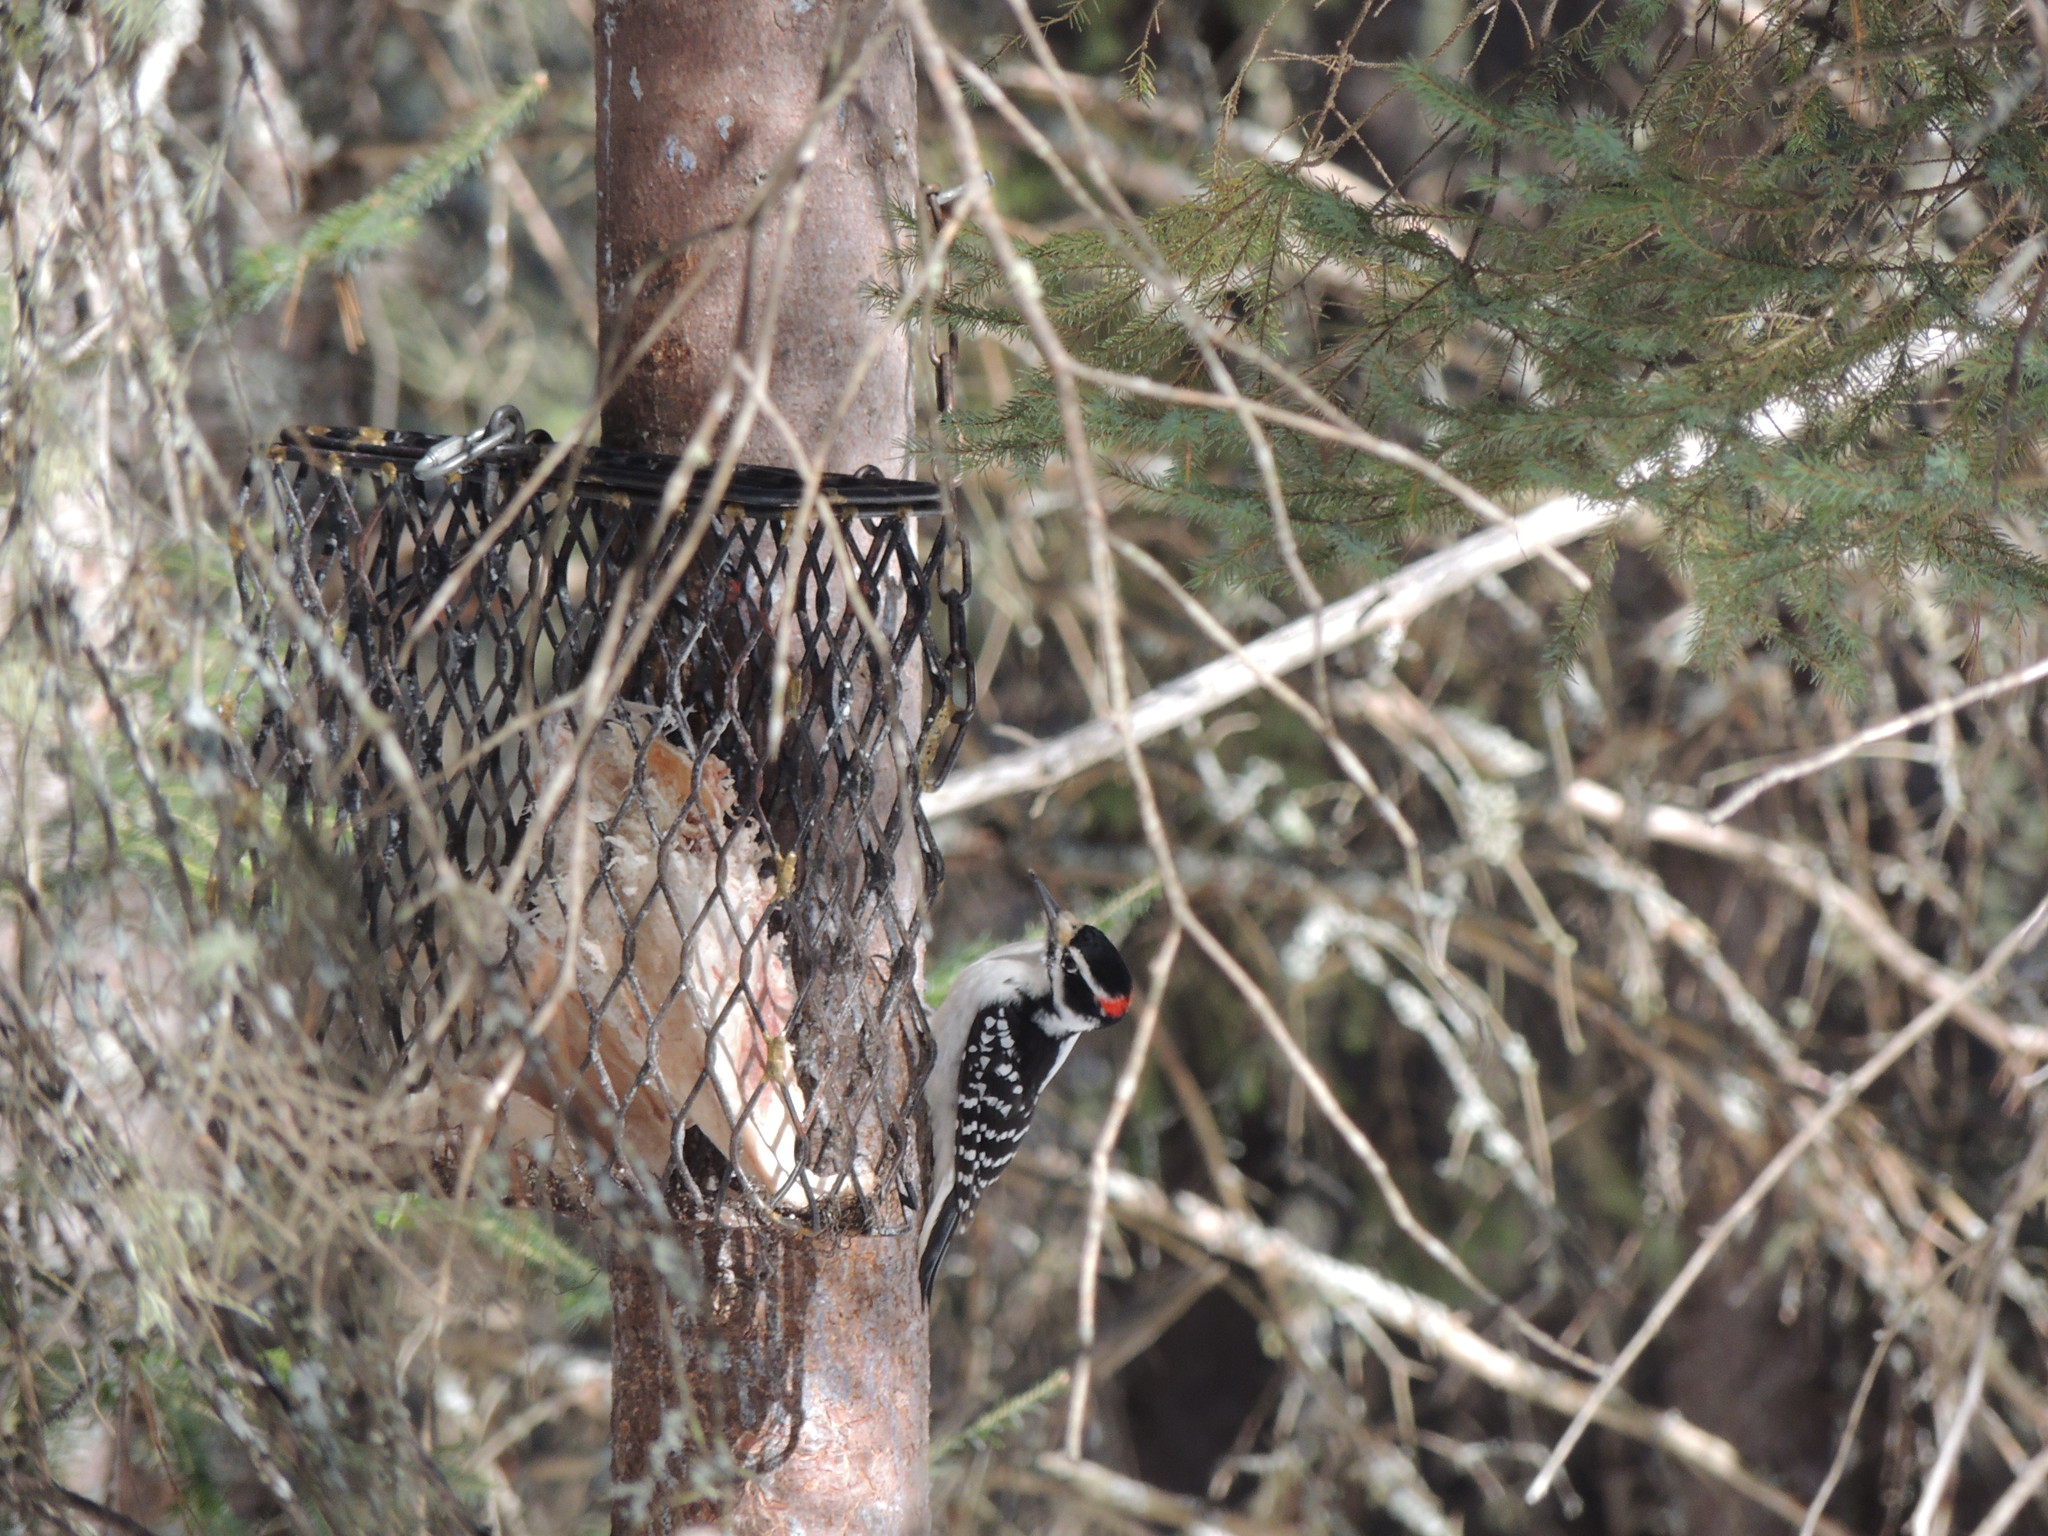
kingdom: Animalia
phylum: Chordata
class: Aves
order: Piciformes
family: Picidae
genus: Leuconotopicus
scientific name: Leuconotopicus villosus
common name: Hairy woodpecker
